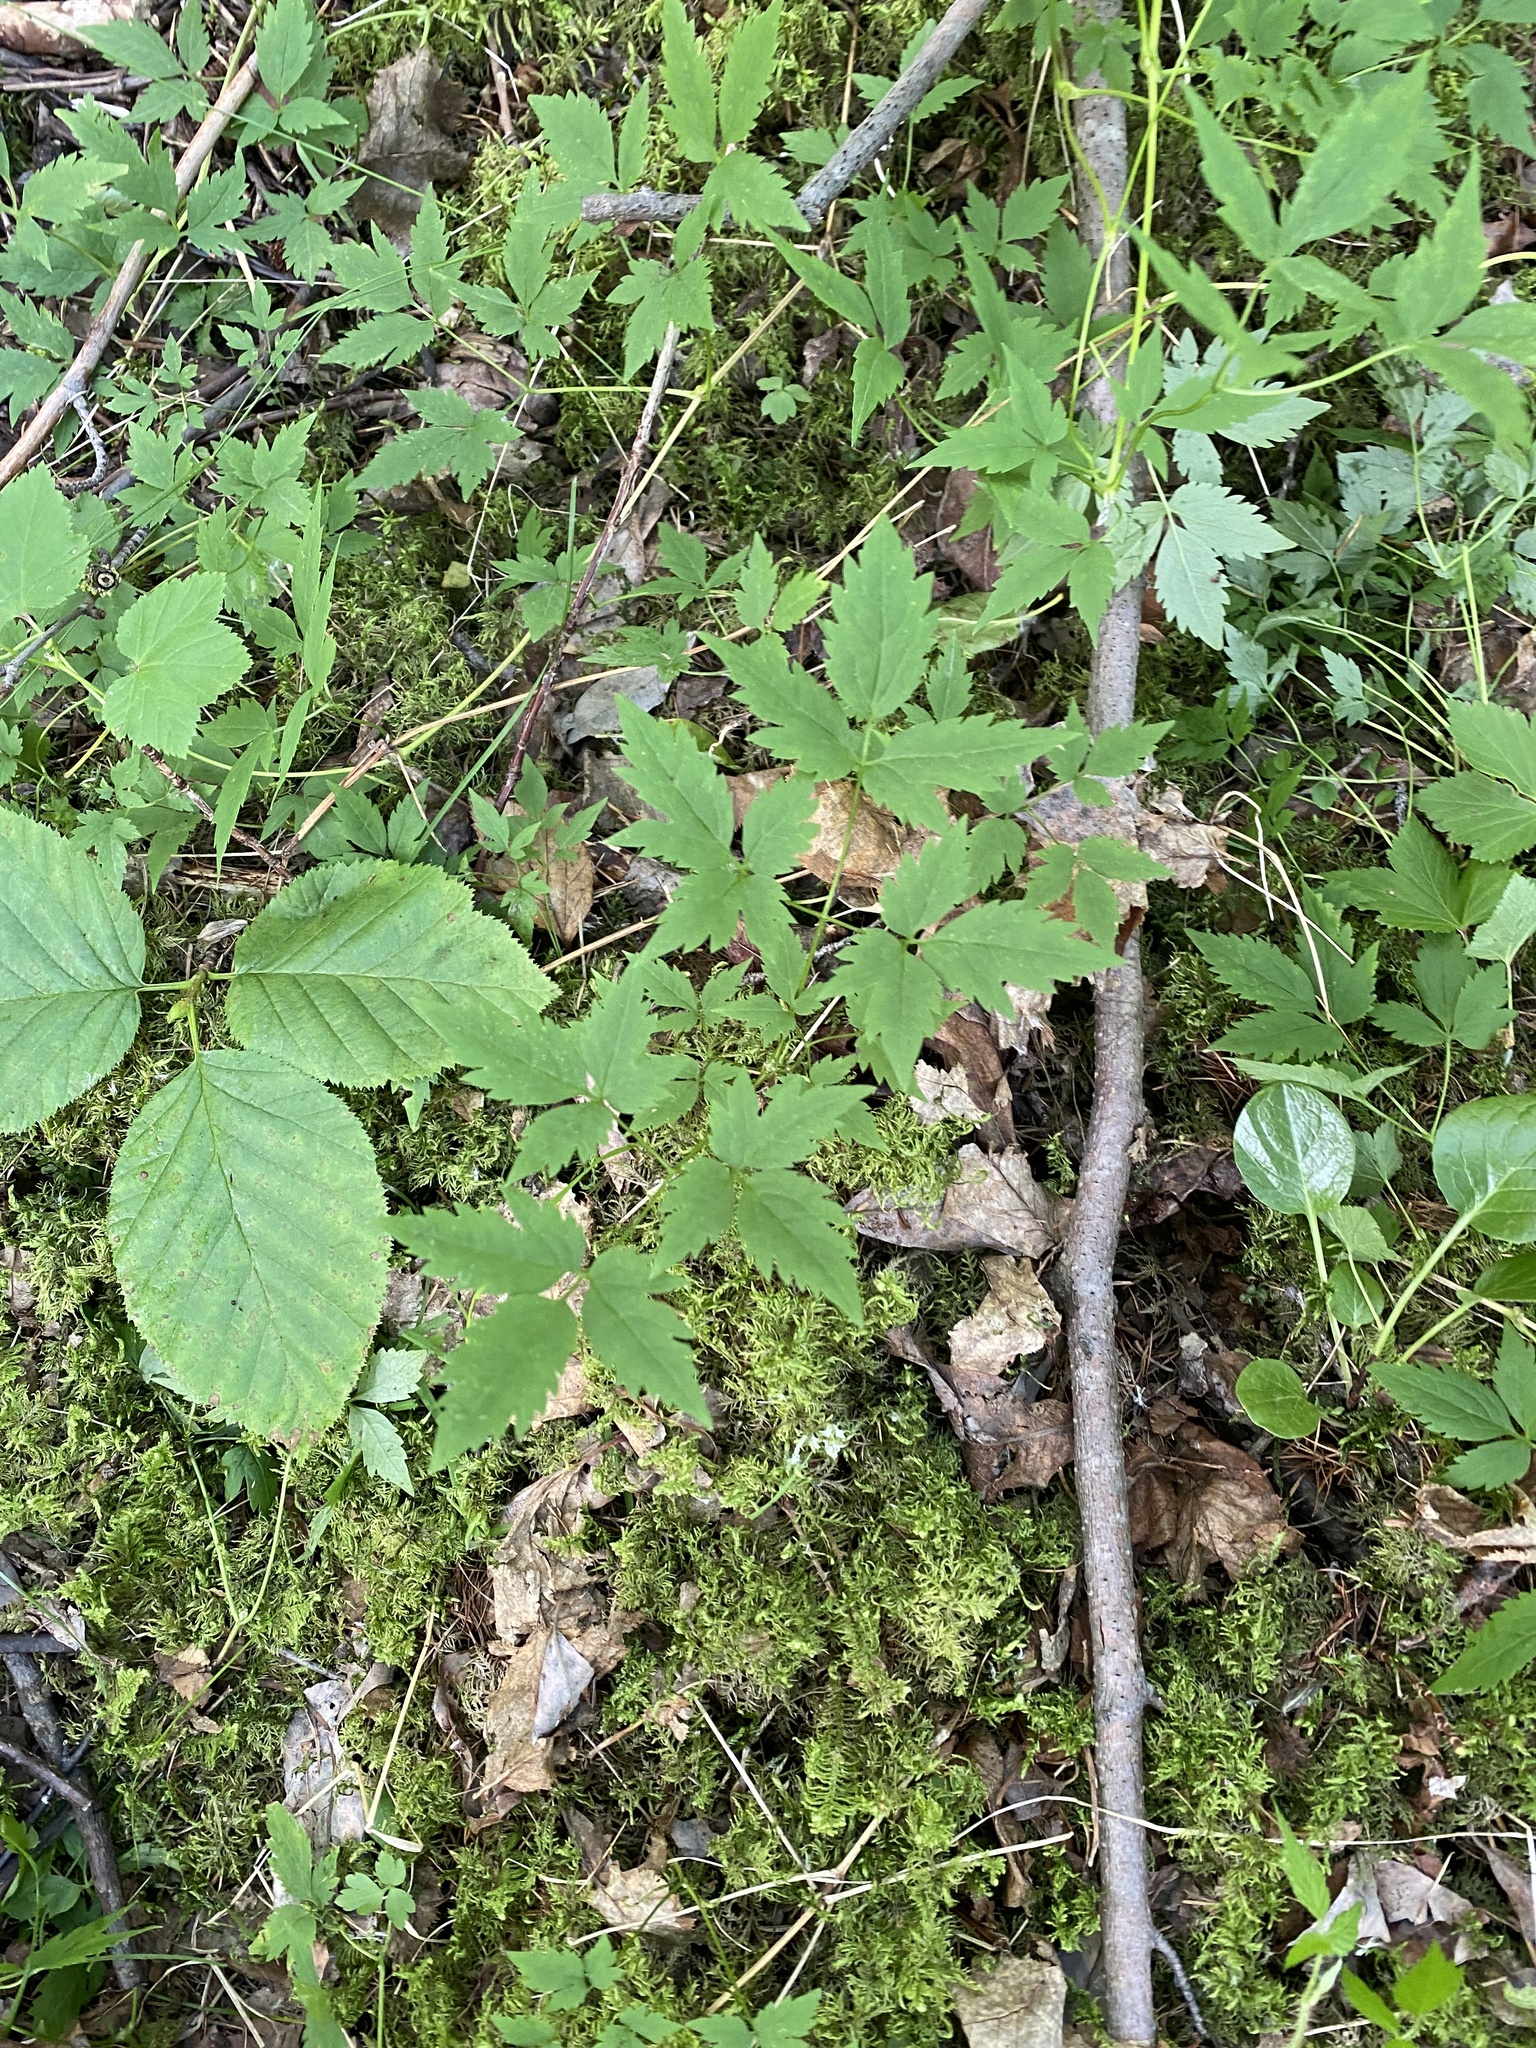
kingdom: Plantae
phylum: Tracheophyta
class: Magnoliopsida
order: Ranunculales
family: Ranunculaceae
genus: Clematis
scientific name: Clematis sibirica
